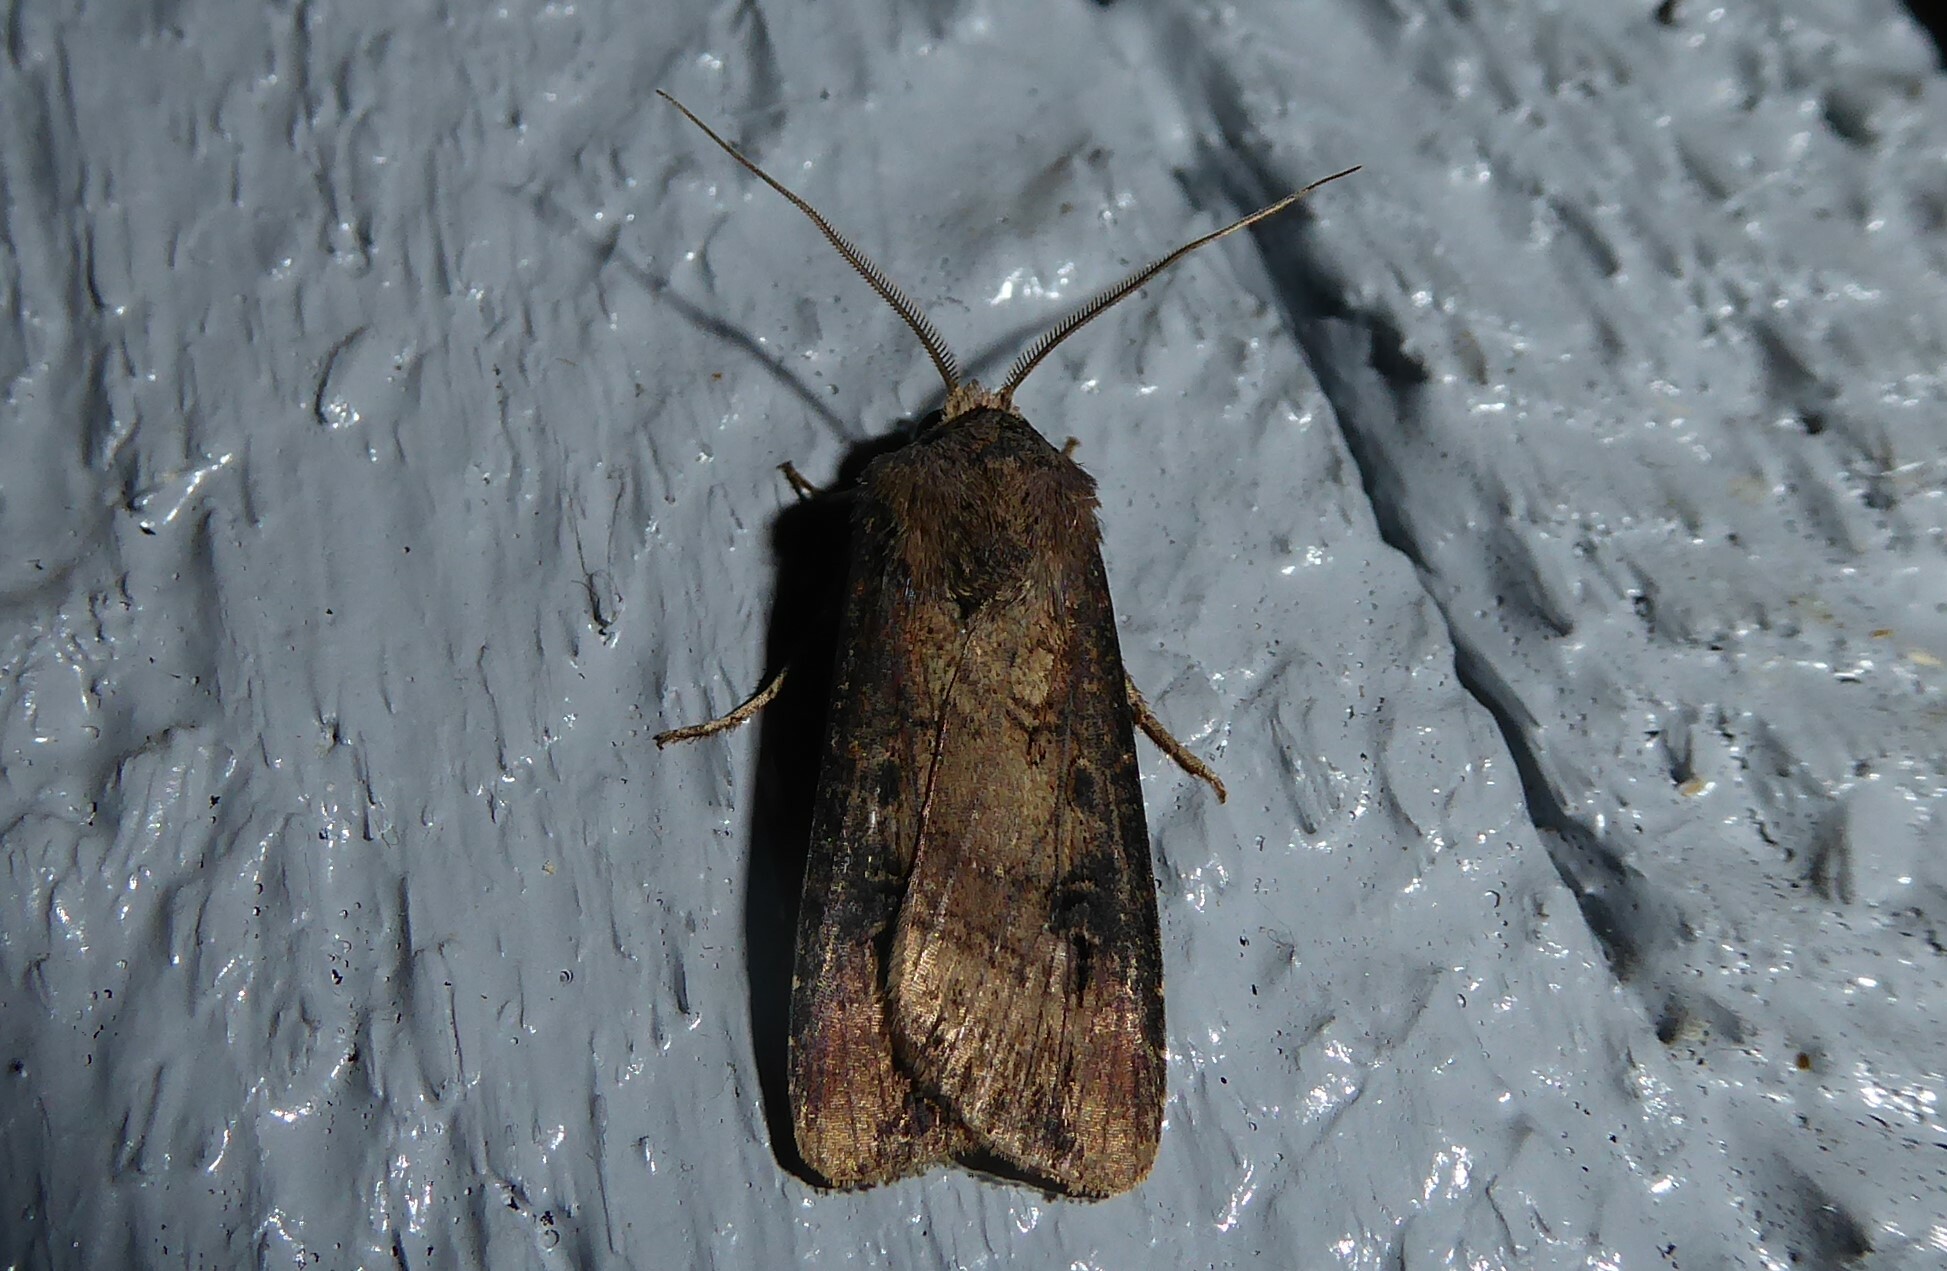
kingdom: Animalia
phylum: Arthropoda
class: Insecta
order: Lepidoptera
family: Noctuidae
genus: Agrotis
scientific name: Agrotis ipsilon
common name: Dark sword-grass
